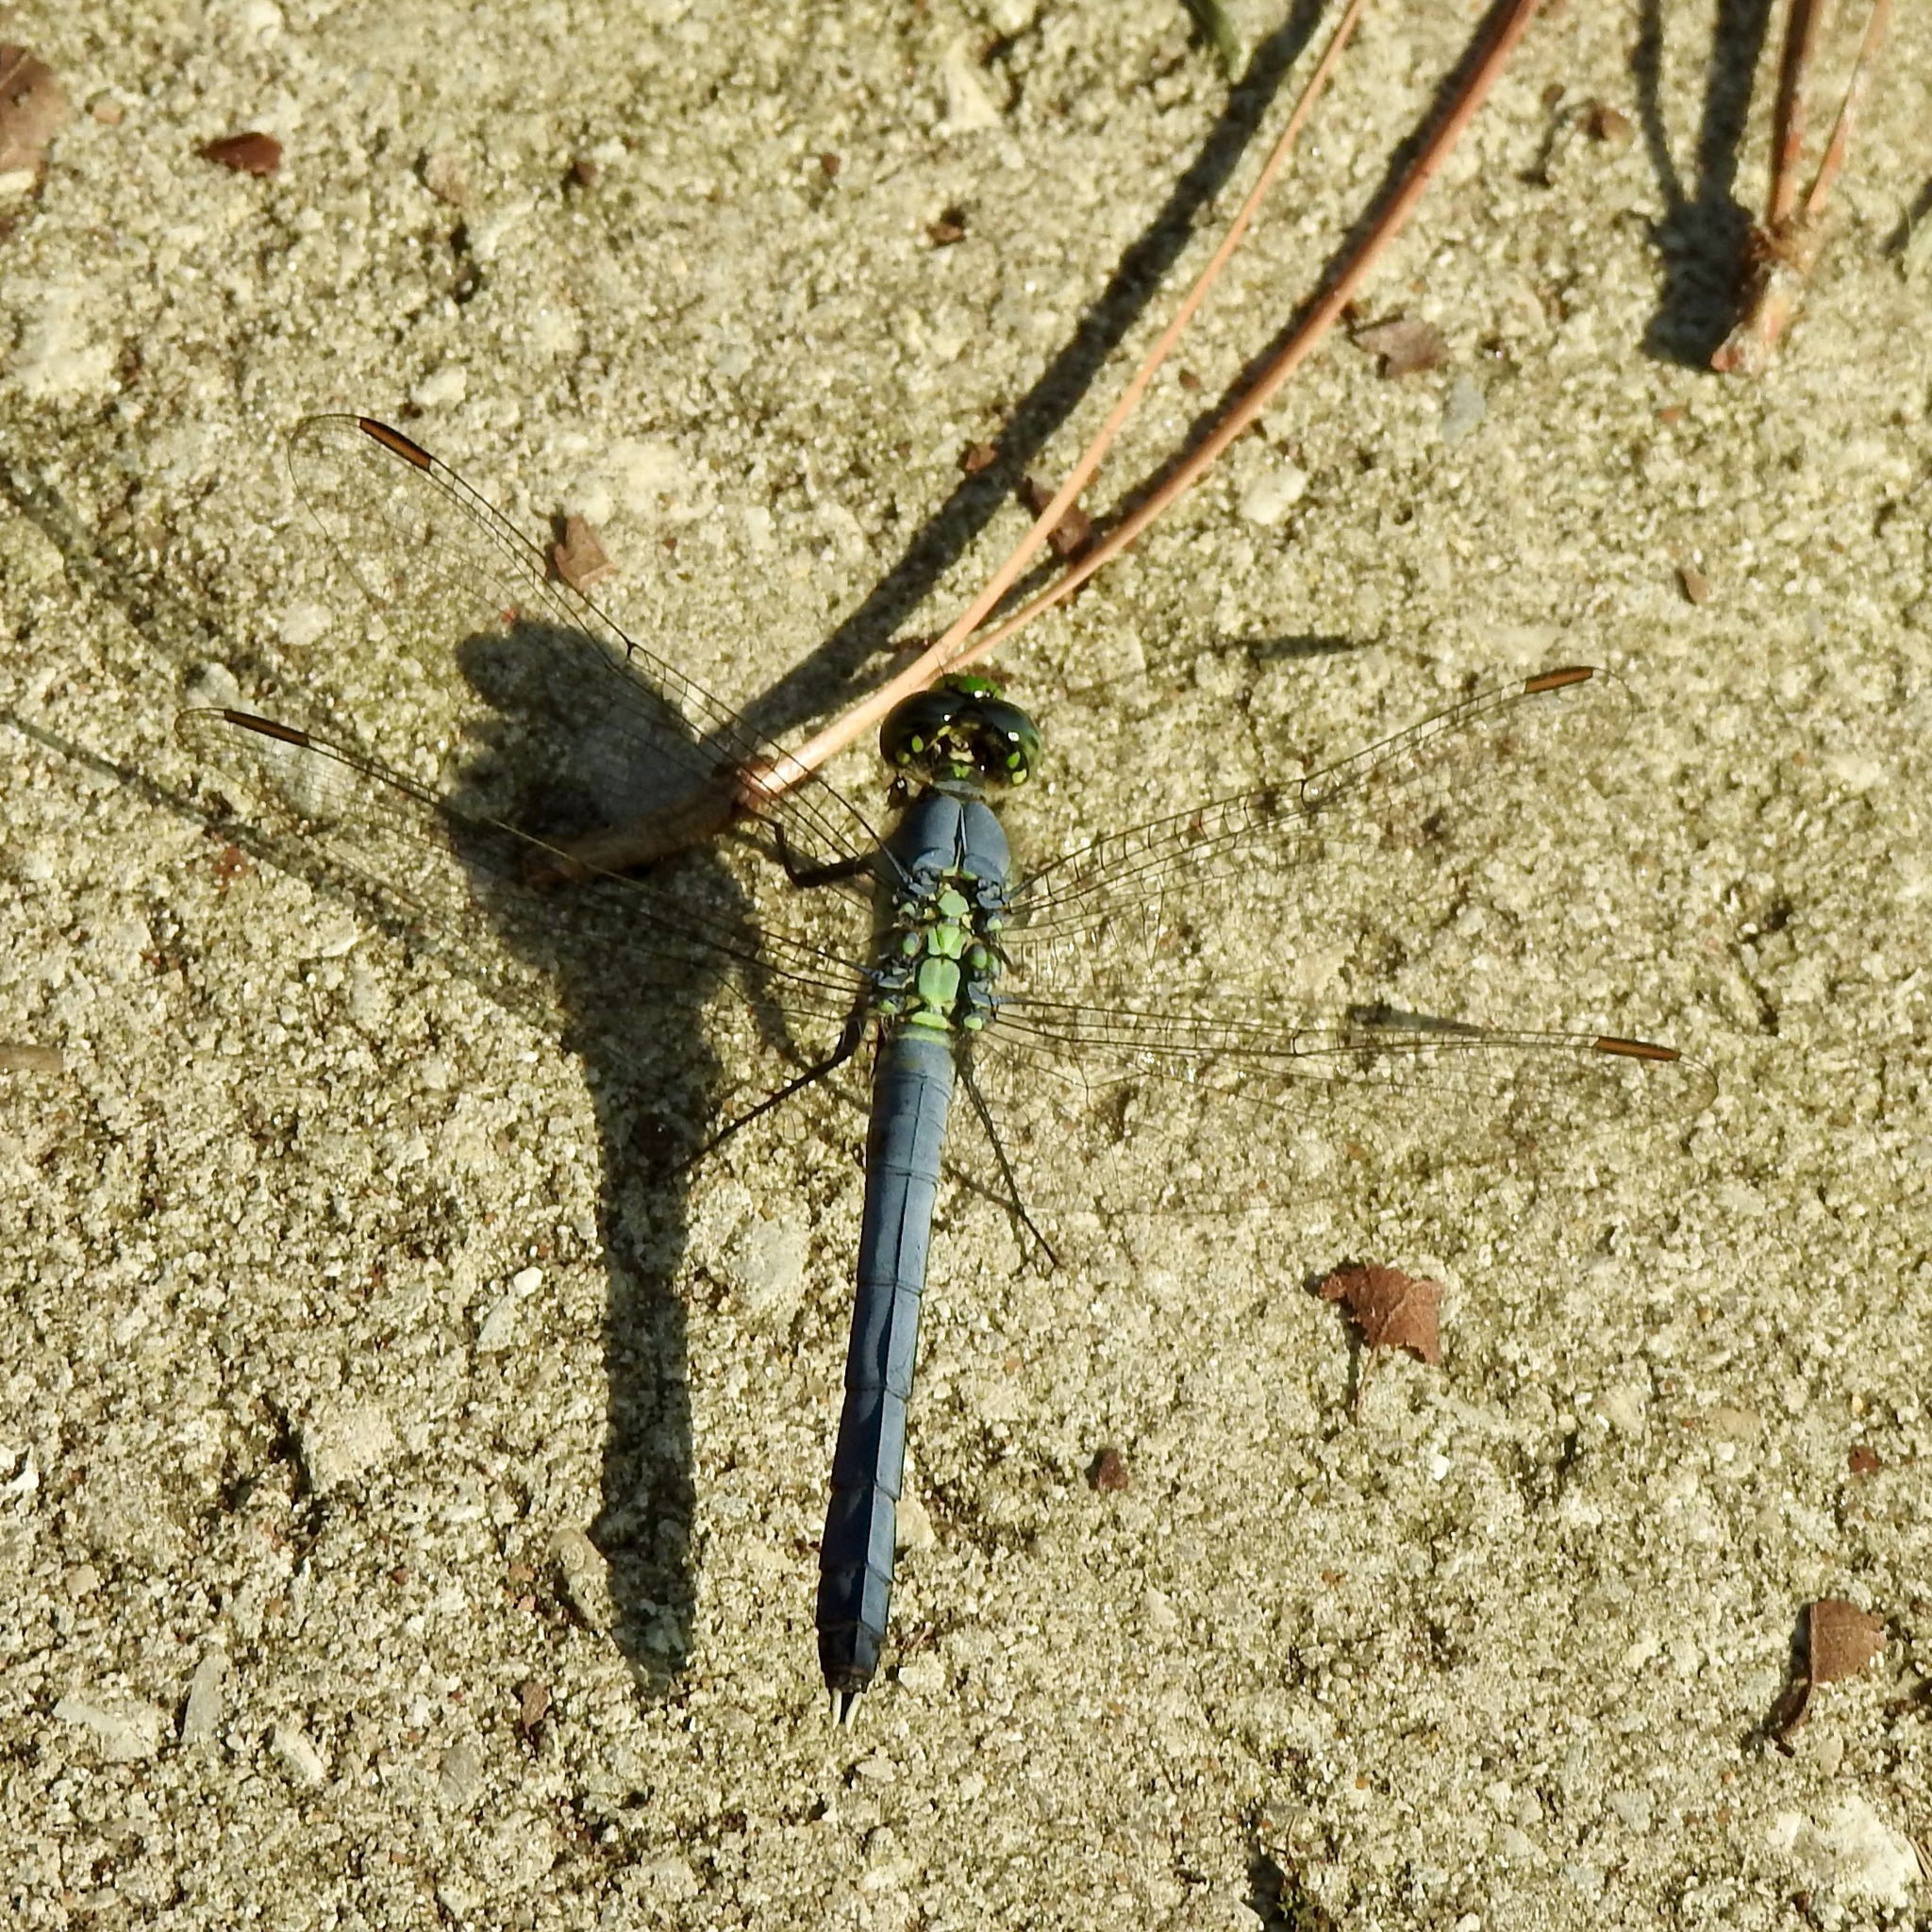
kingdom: Animalia
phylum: Arthropoda
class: Insecta
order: Odonata
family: Libellulidae
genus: Erythemis
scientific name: Erythemis simplicicollis
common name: Eastern pondhawk
